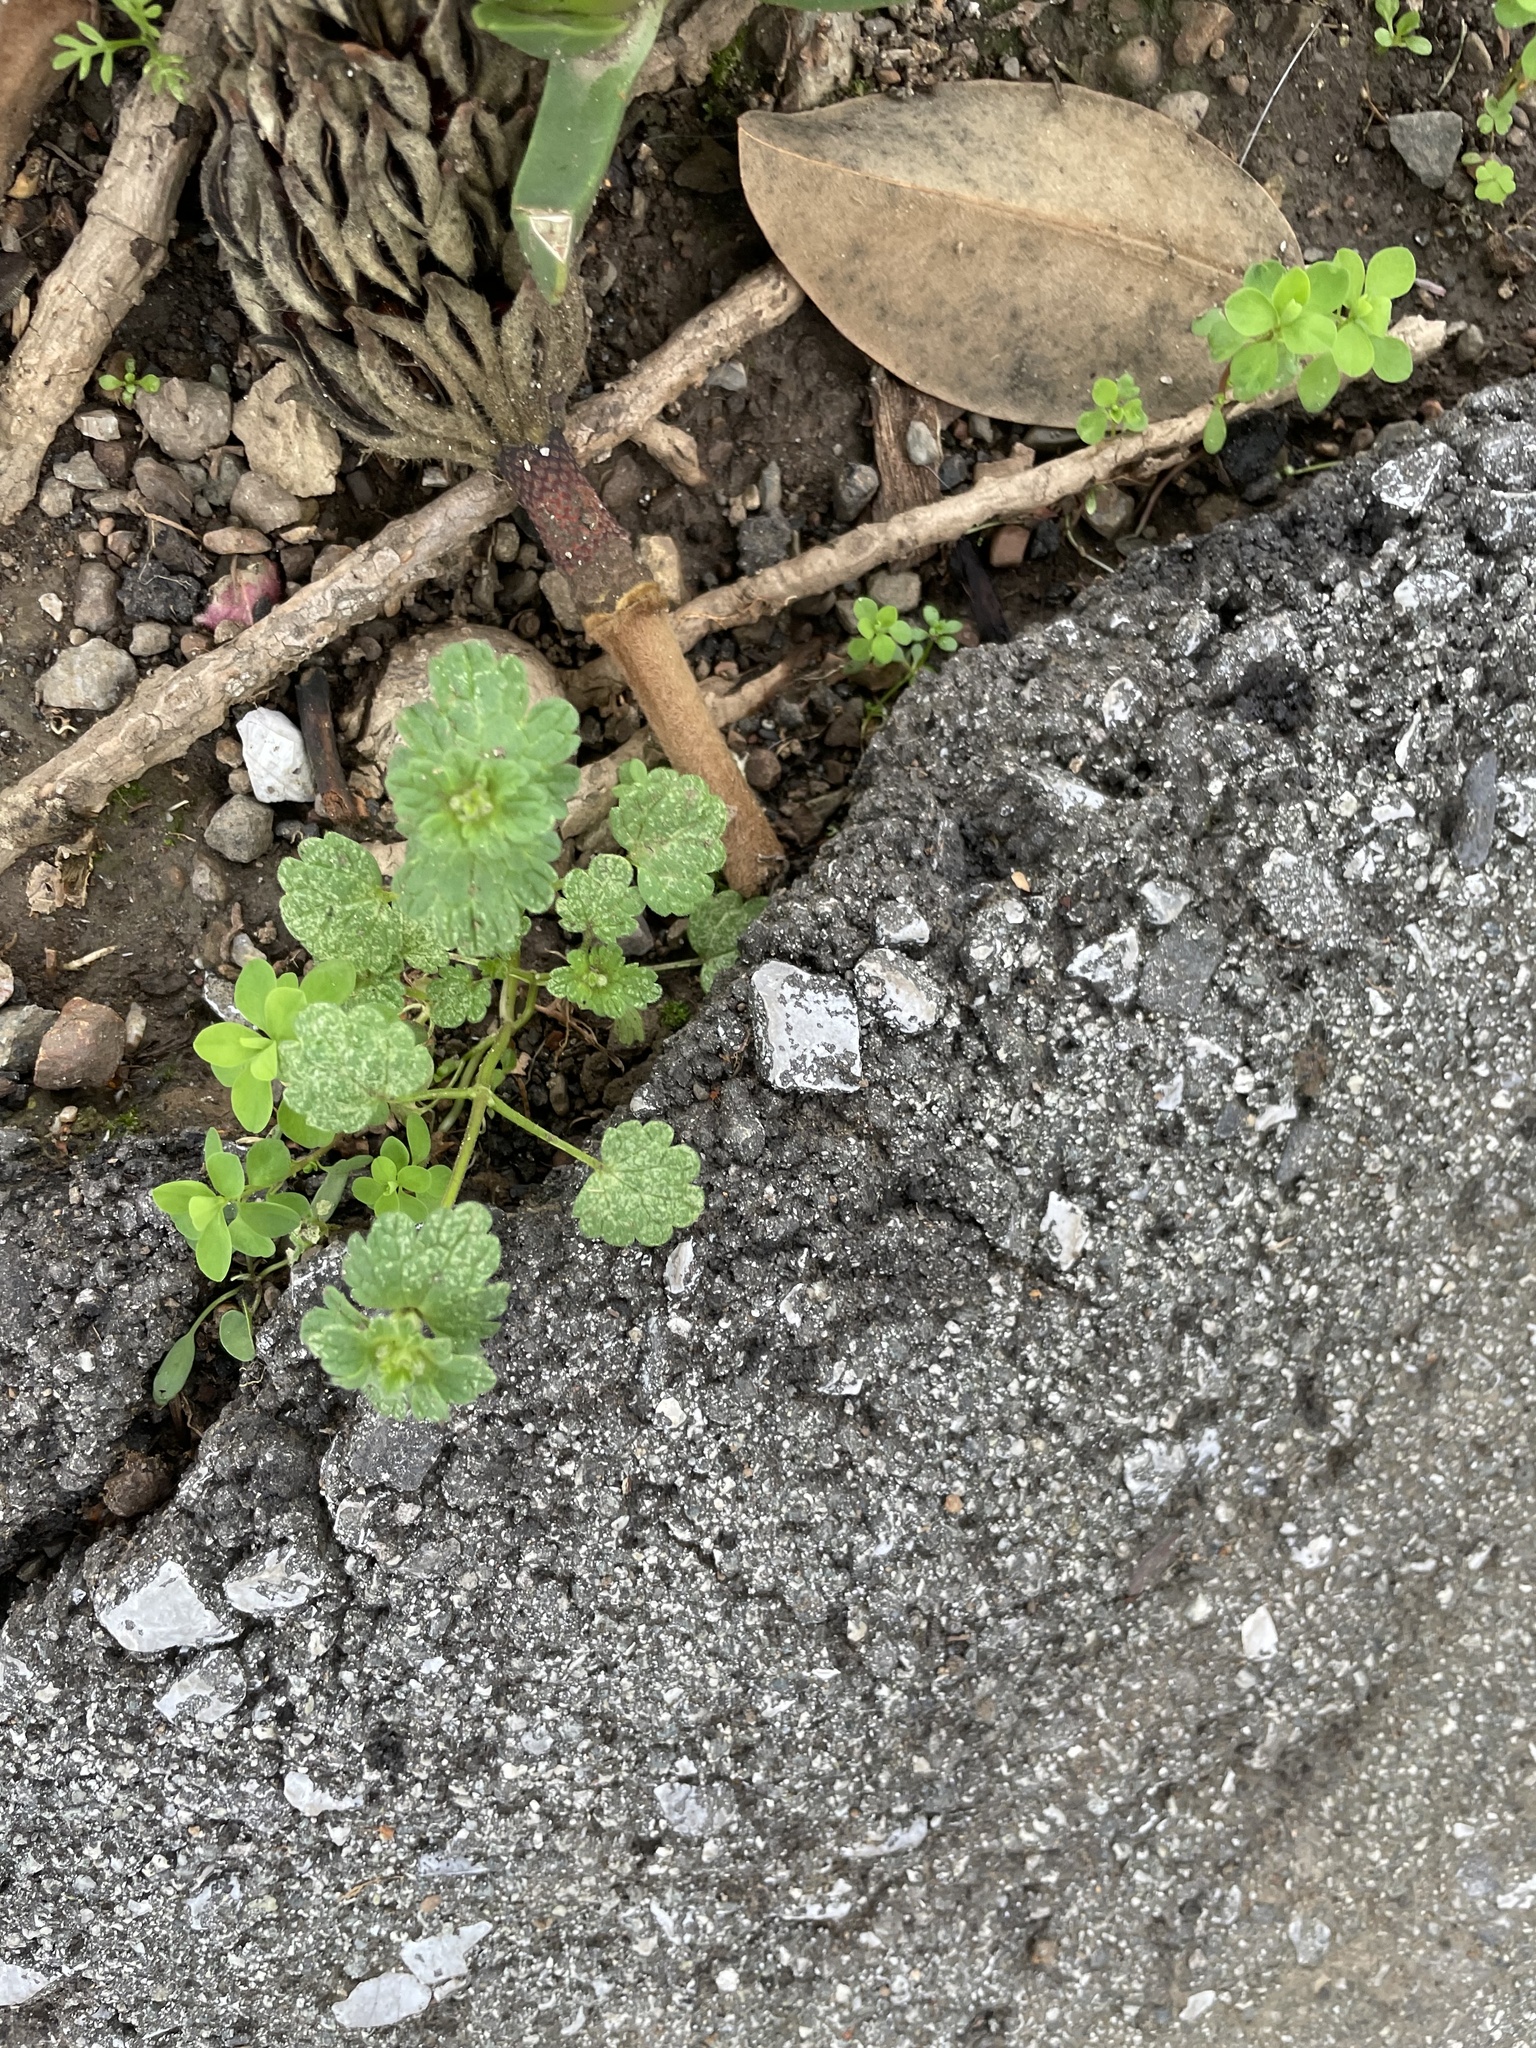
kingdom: Plantae
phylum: Tracheophyta
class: Magnoliopsida
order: Lamiales
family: Lamiaceae
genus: Lamium
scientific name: Lamium amplexicaule
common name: Henbit dead-nettle
